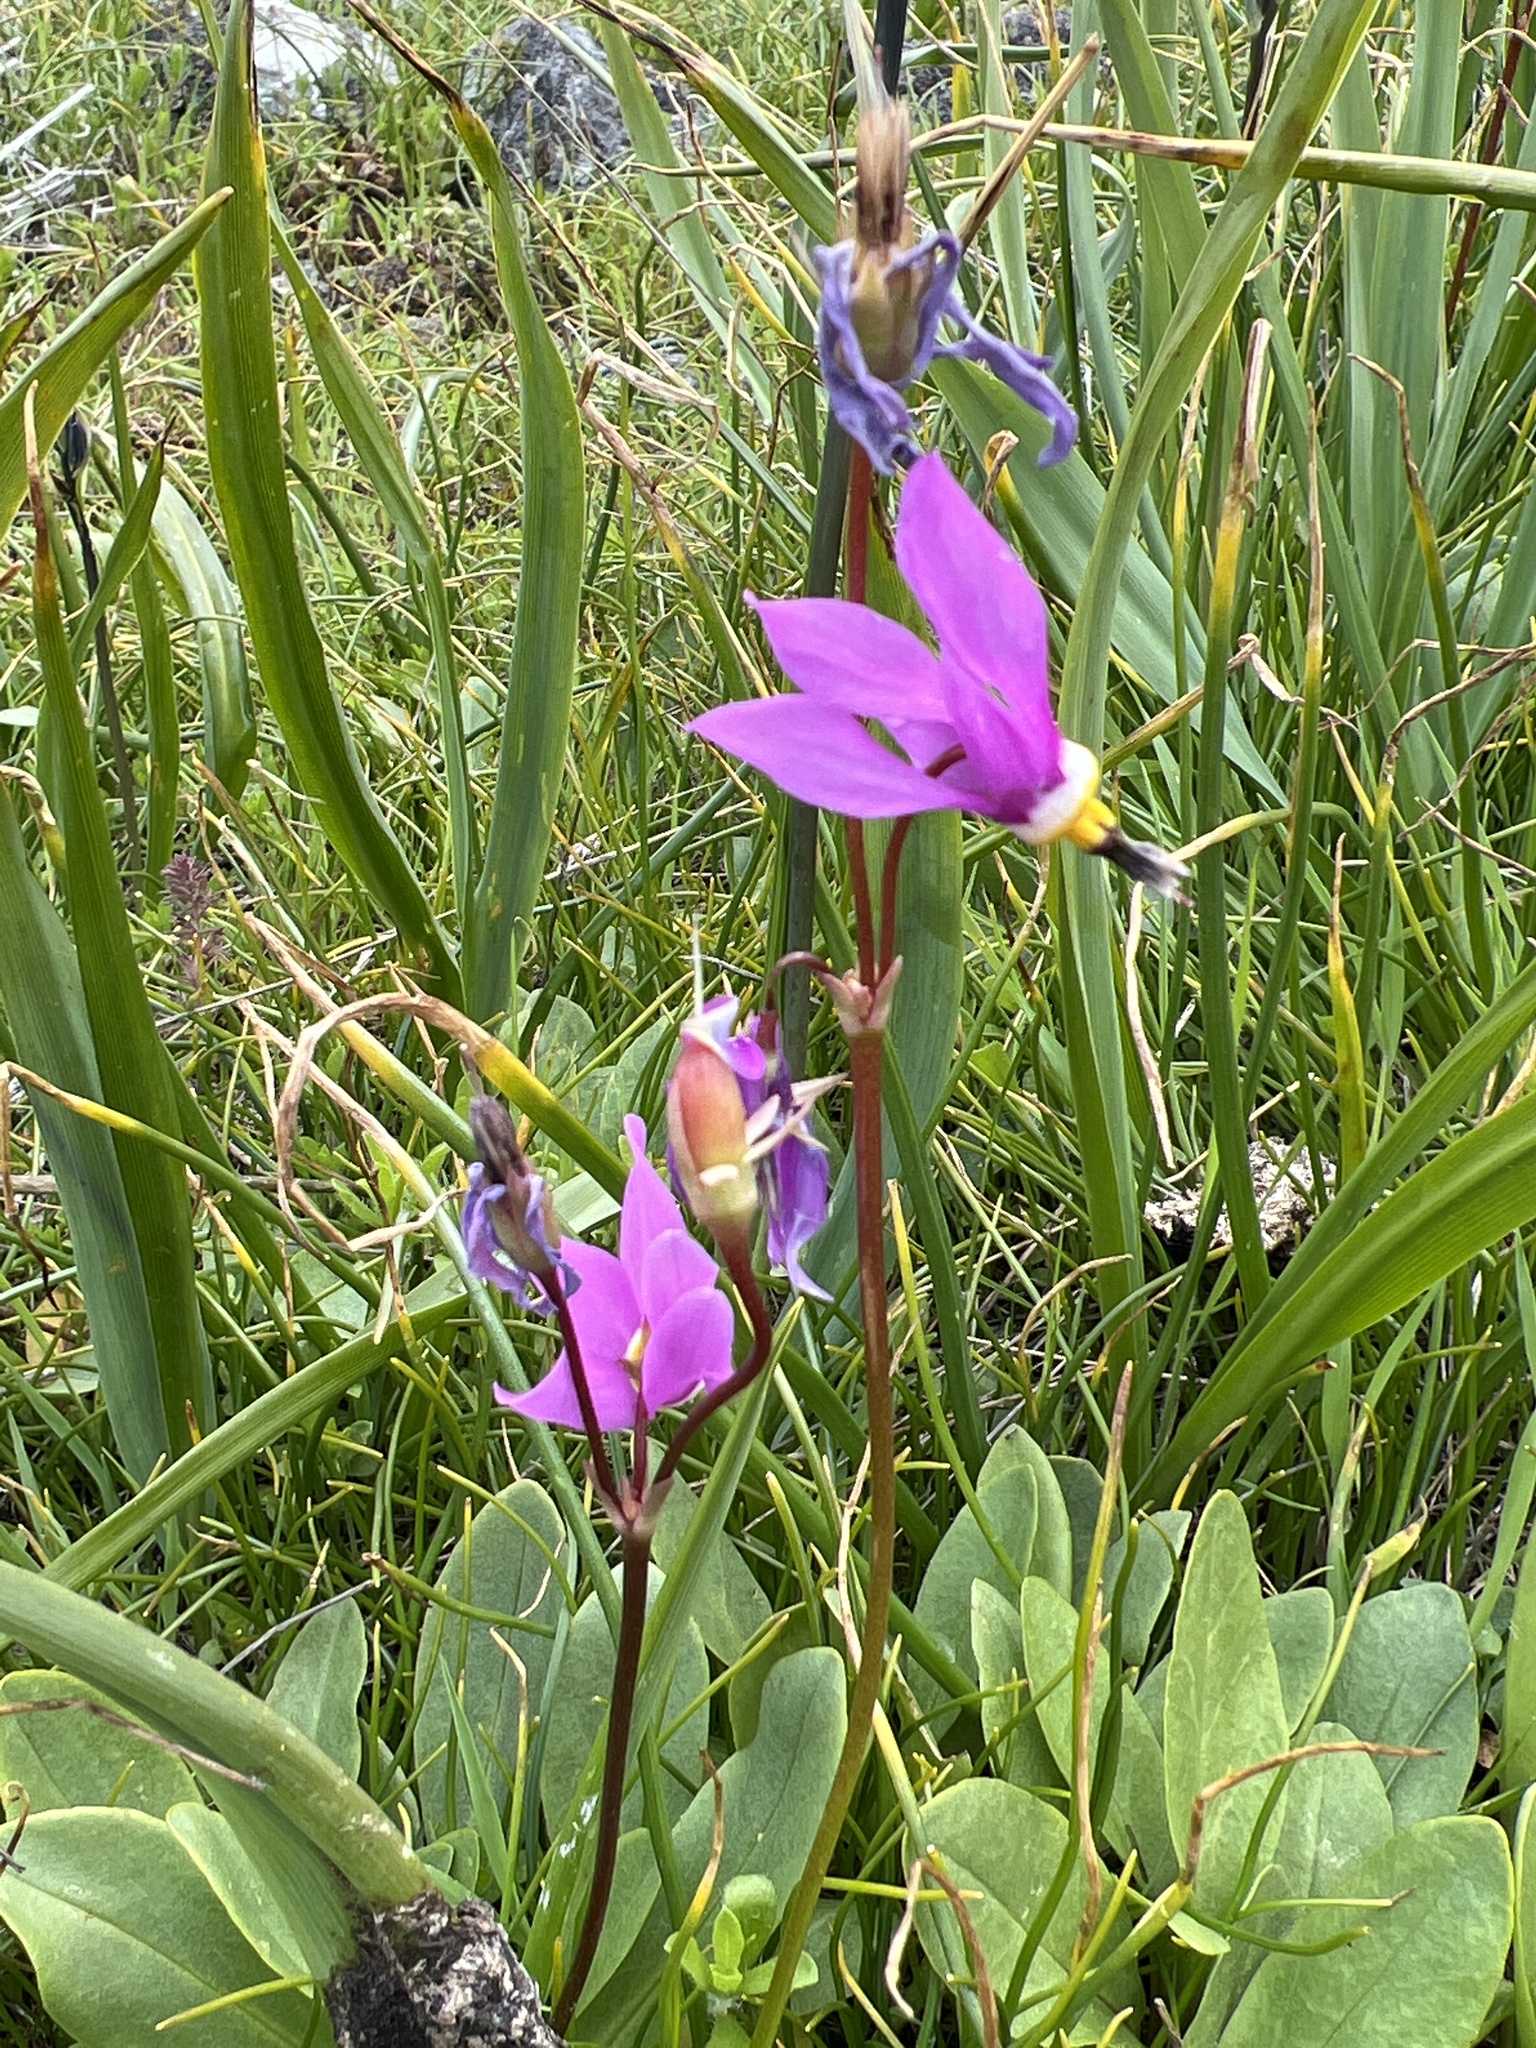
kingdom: Plantae
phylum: Tracheophyta
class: Magnoliopsida
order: Ericales
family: Primulaceae
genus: Dodecatheon
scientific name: Dodecatheon pulchellum
